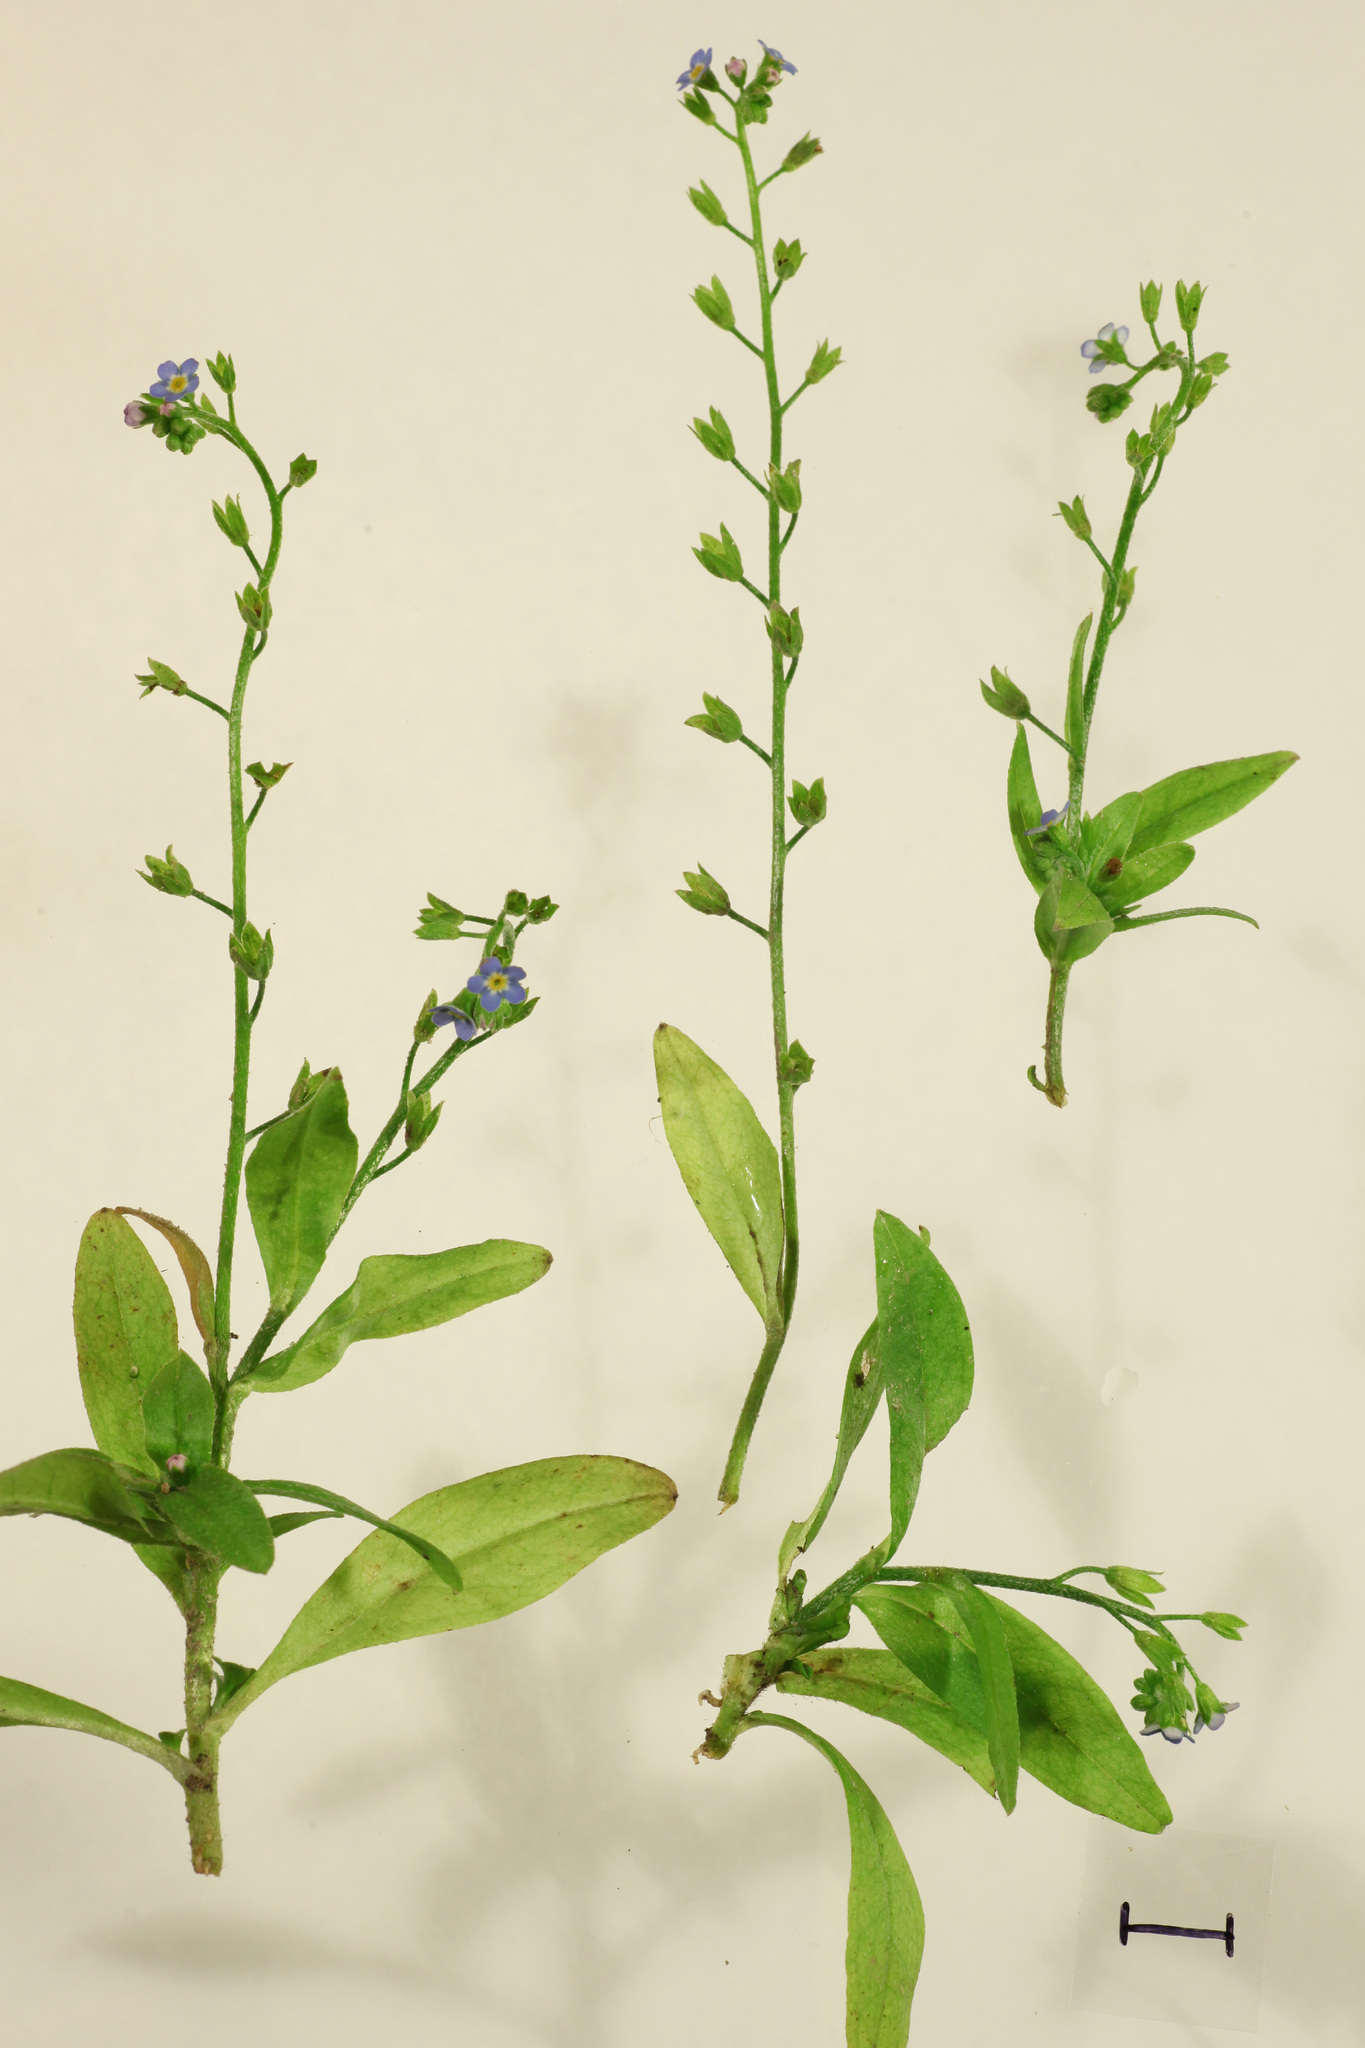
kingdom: Plantae
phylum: Tracheophyta
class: Magnoliopsida
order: Boraginales
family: Boraginaceae
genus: Myosotis
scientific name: Myosotis scorpioides
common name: Water forget-me-not
